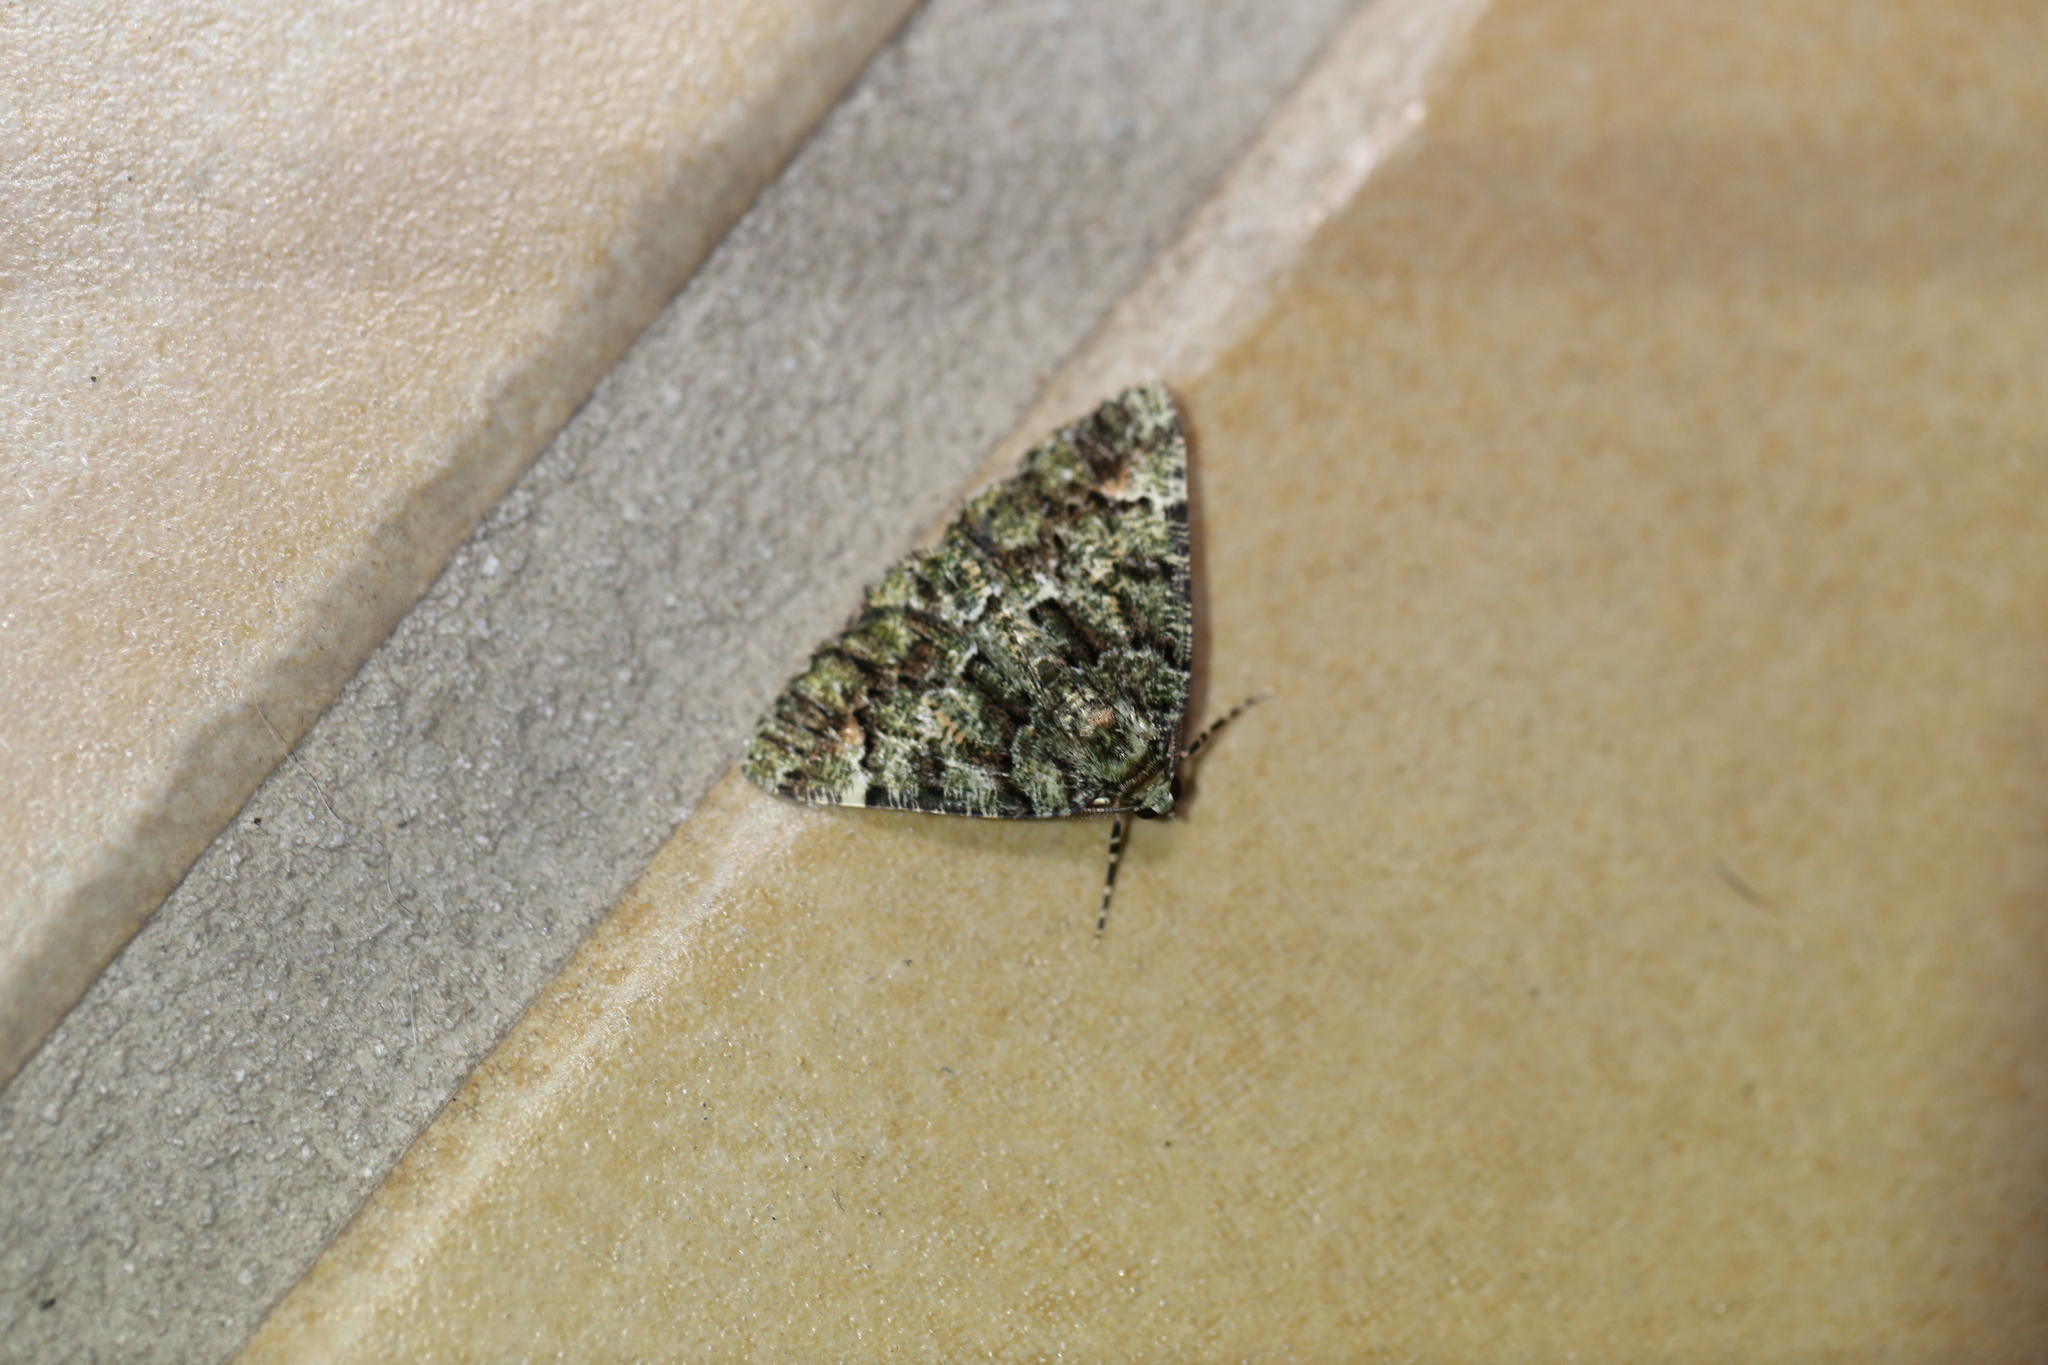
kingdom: Animalia
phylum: Arthropoda
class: Insecta
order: Lepidoptera
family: Geometridae
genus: Aeolochroma
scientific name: Aeolochroma metarhodata
